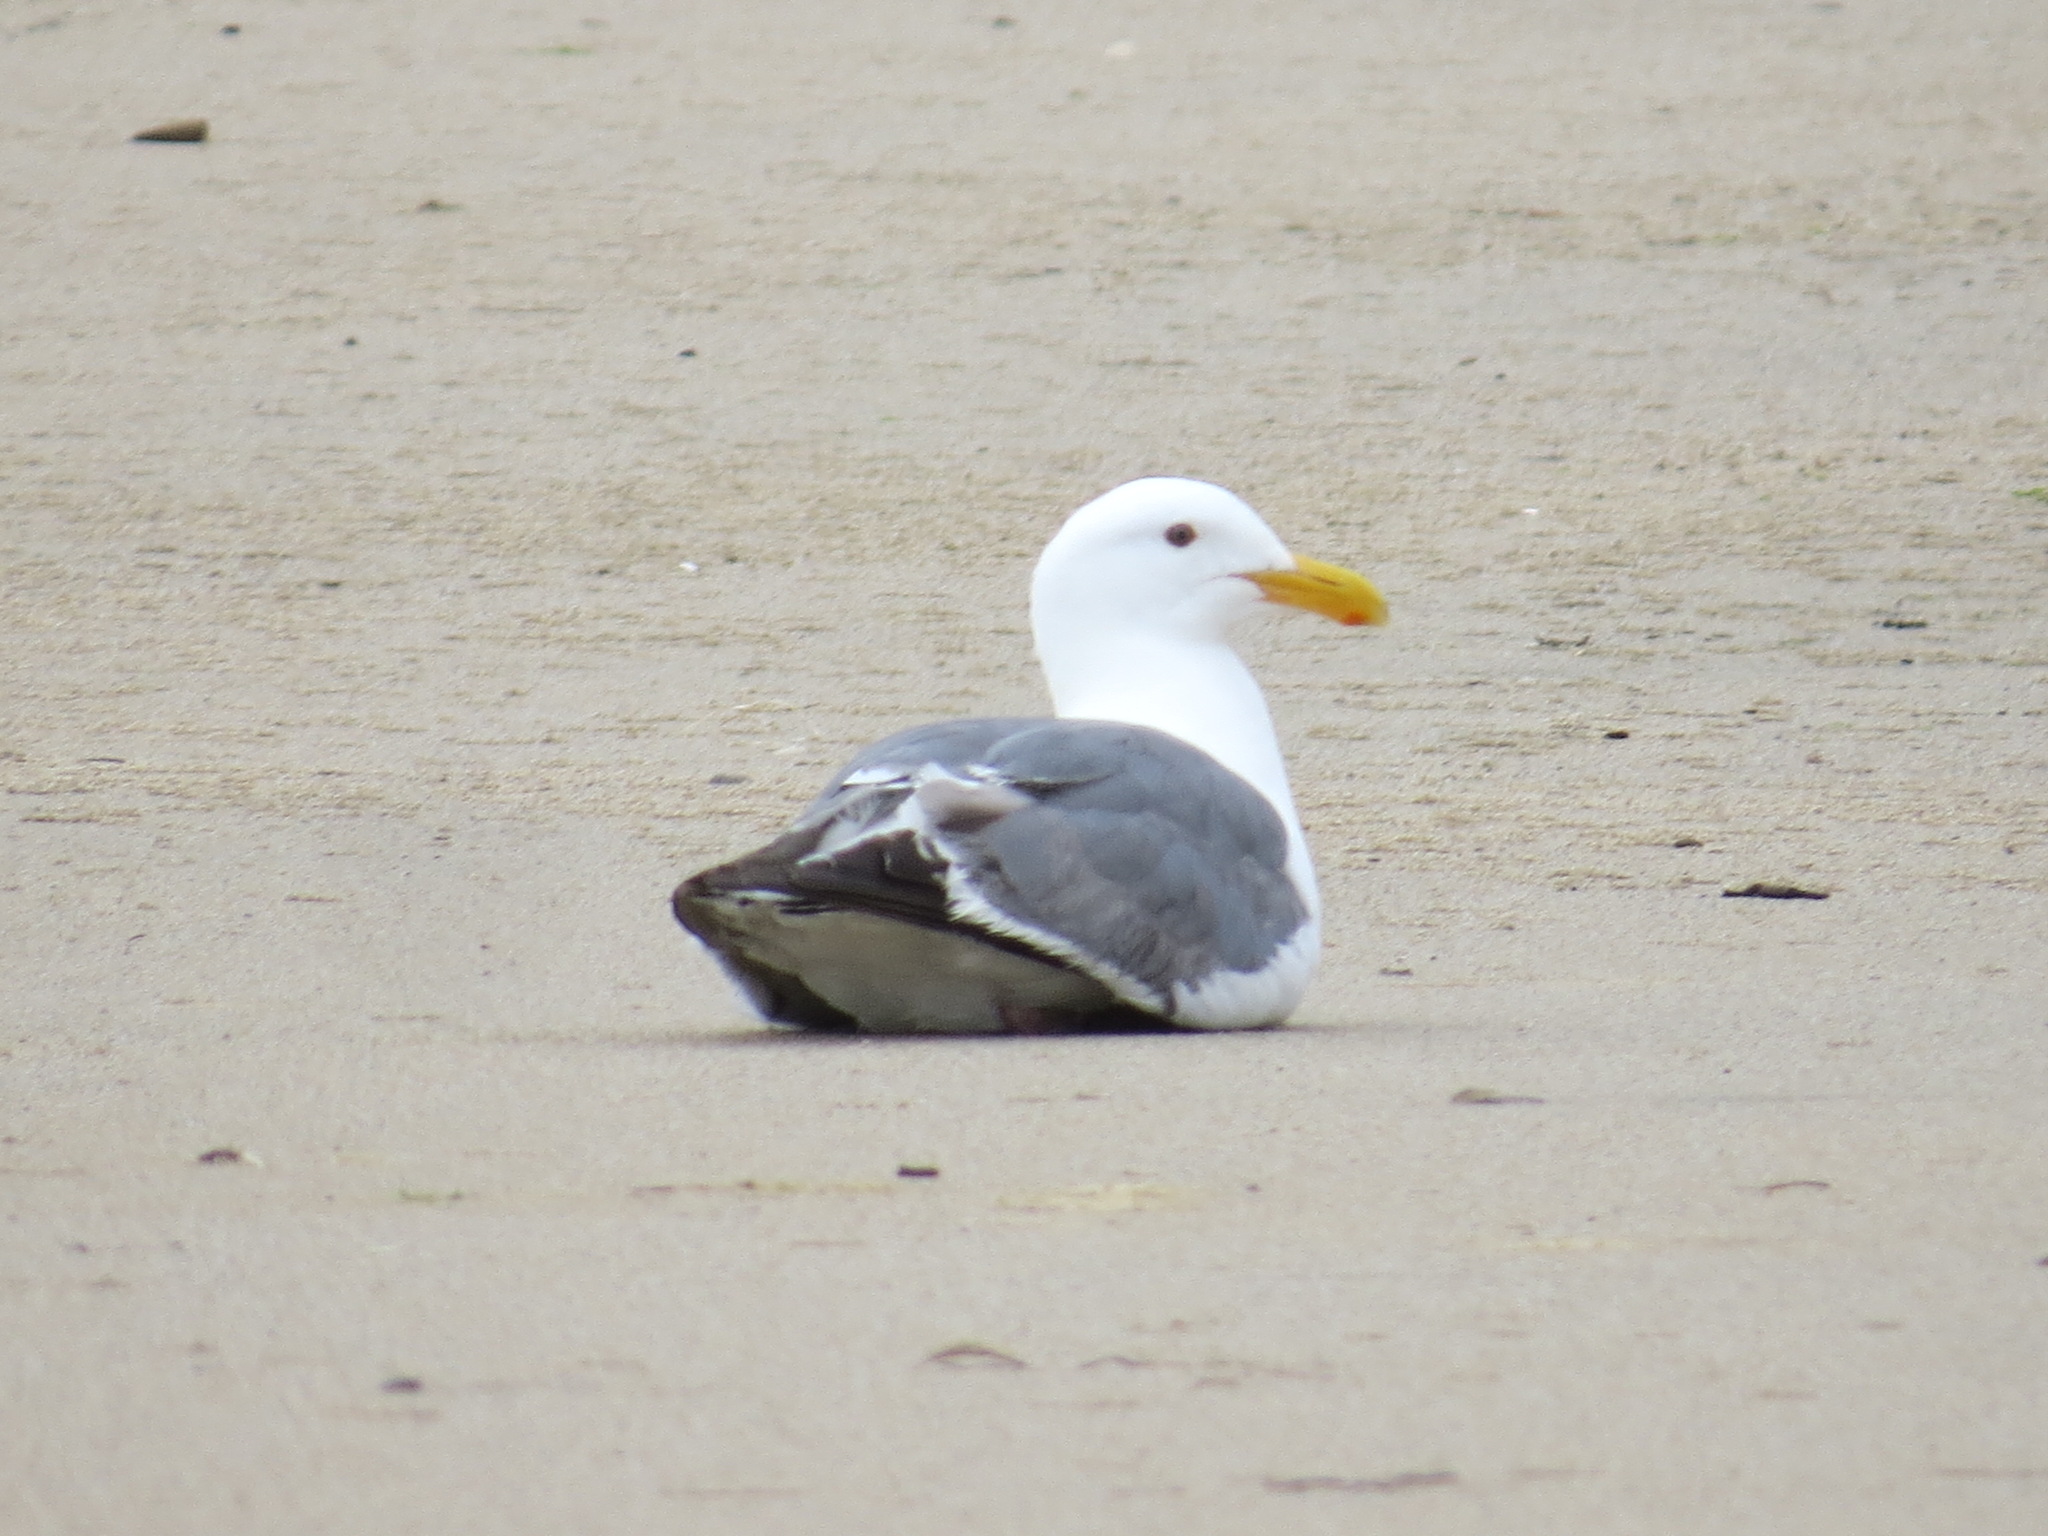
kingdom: Animalia
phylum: Chordata
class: Aves
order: Charadriiformes
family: Laridae
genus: Larus
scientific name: Larus occidentalis
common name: Western gull
